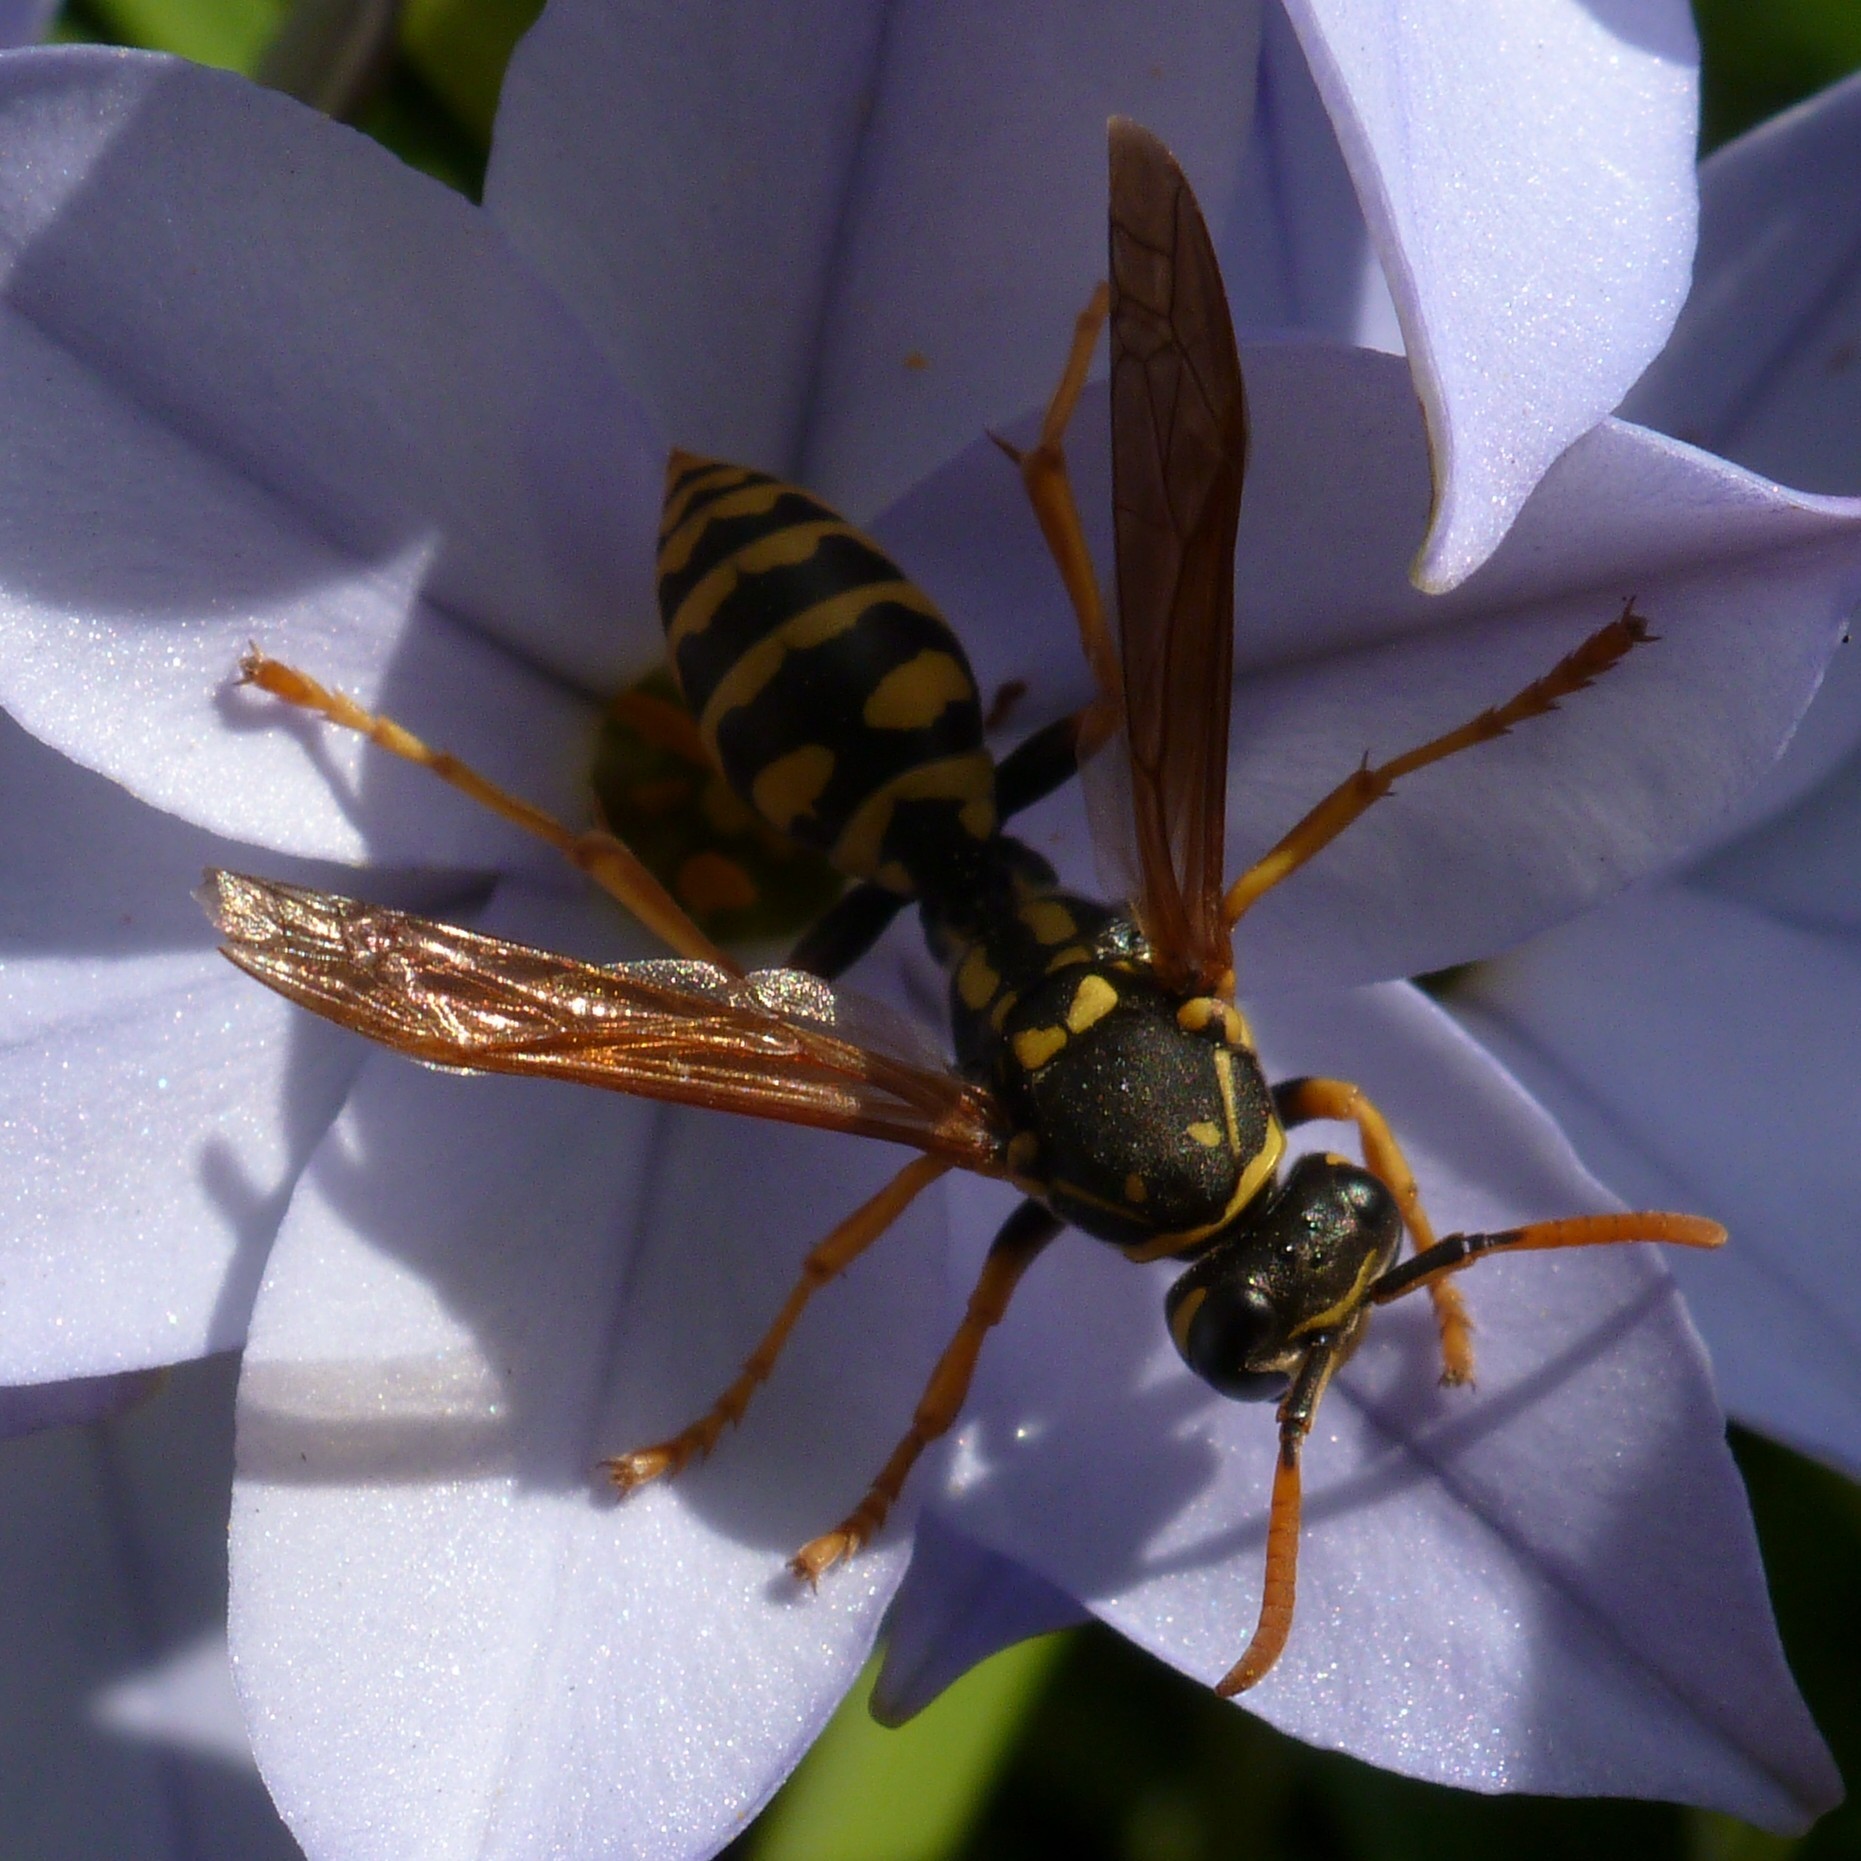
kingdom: Animalia
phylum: Arthropoda
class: Insecta
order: Hymenoptera
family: Eumenidae
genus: Polistes
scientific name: Polistes dominula
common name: Paper wasp
